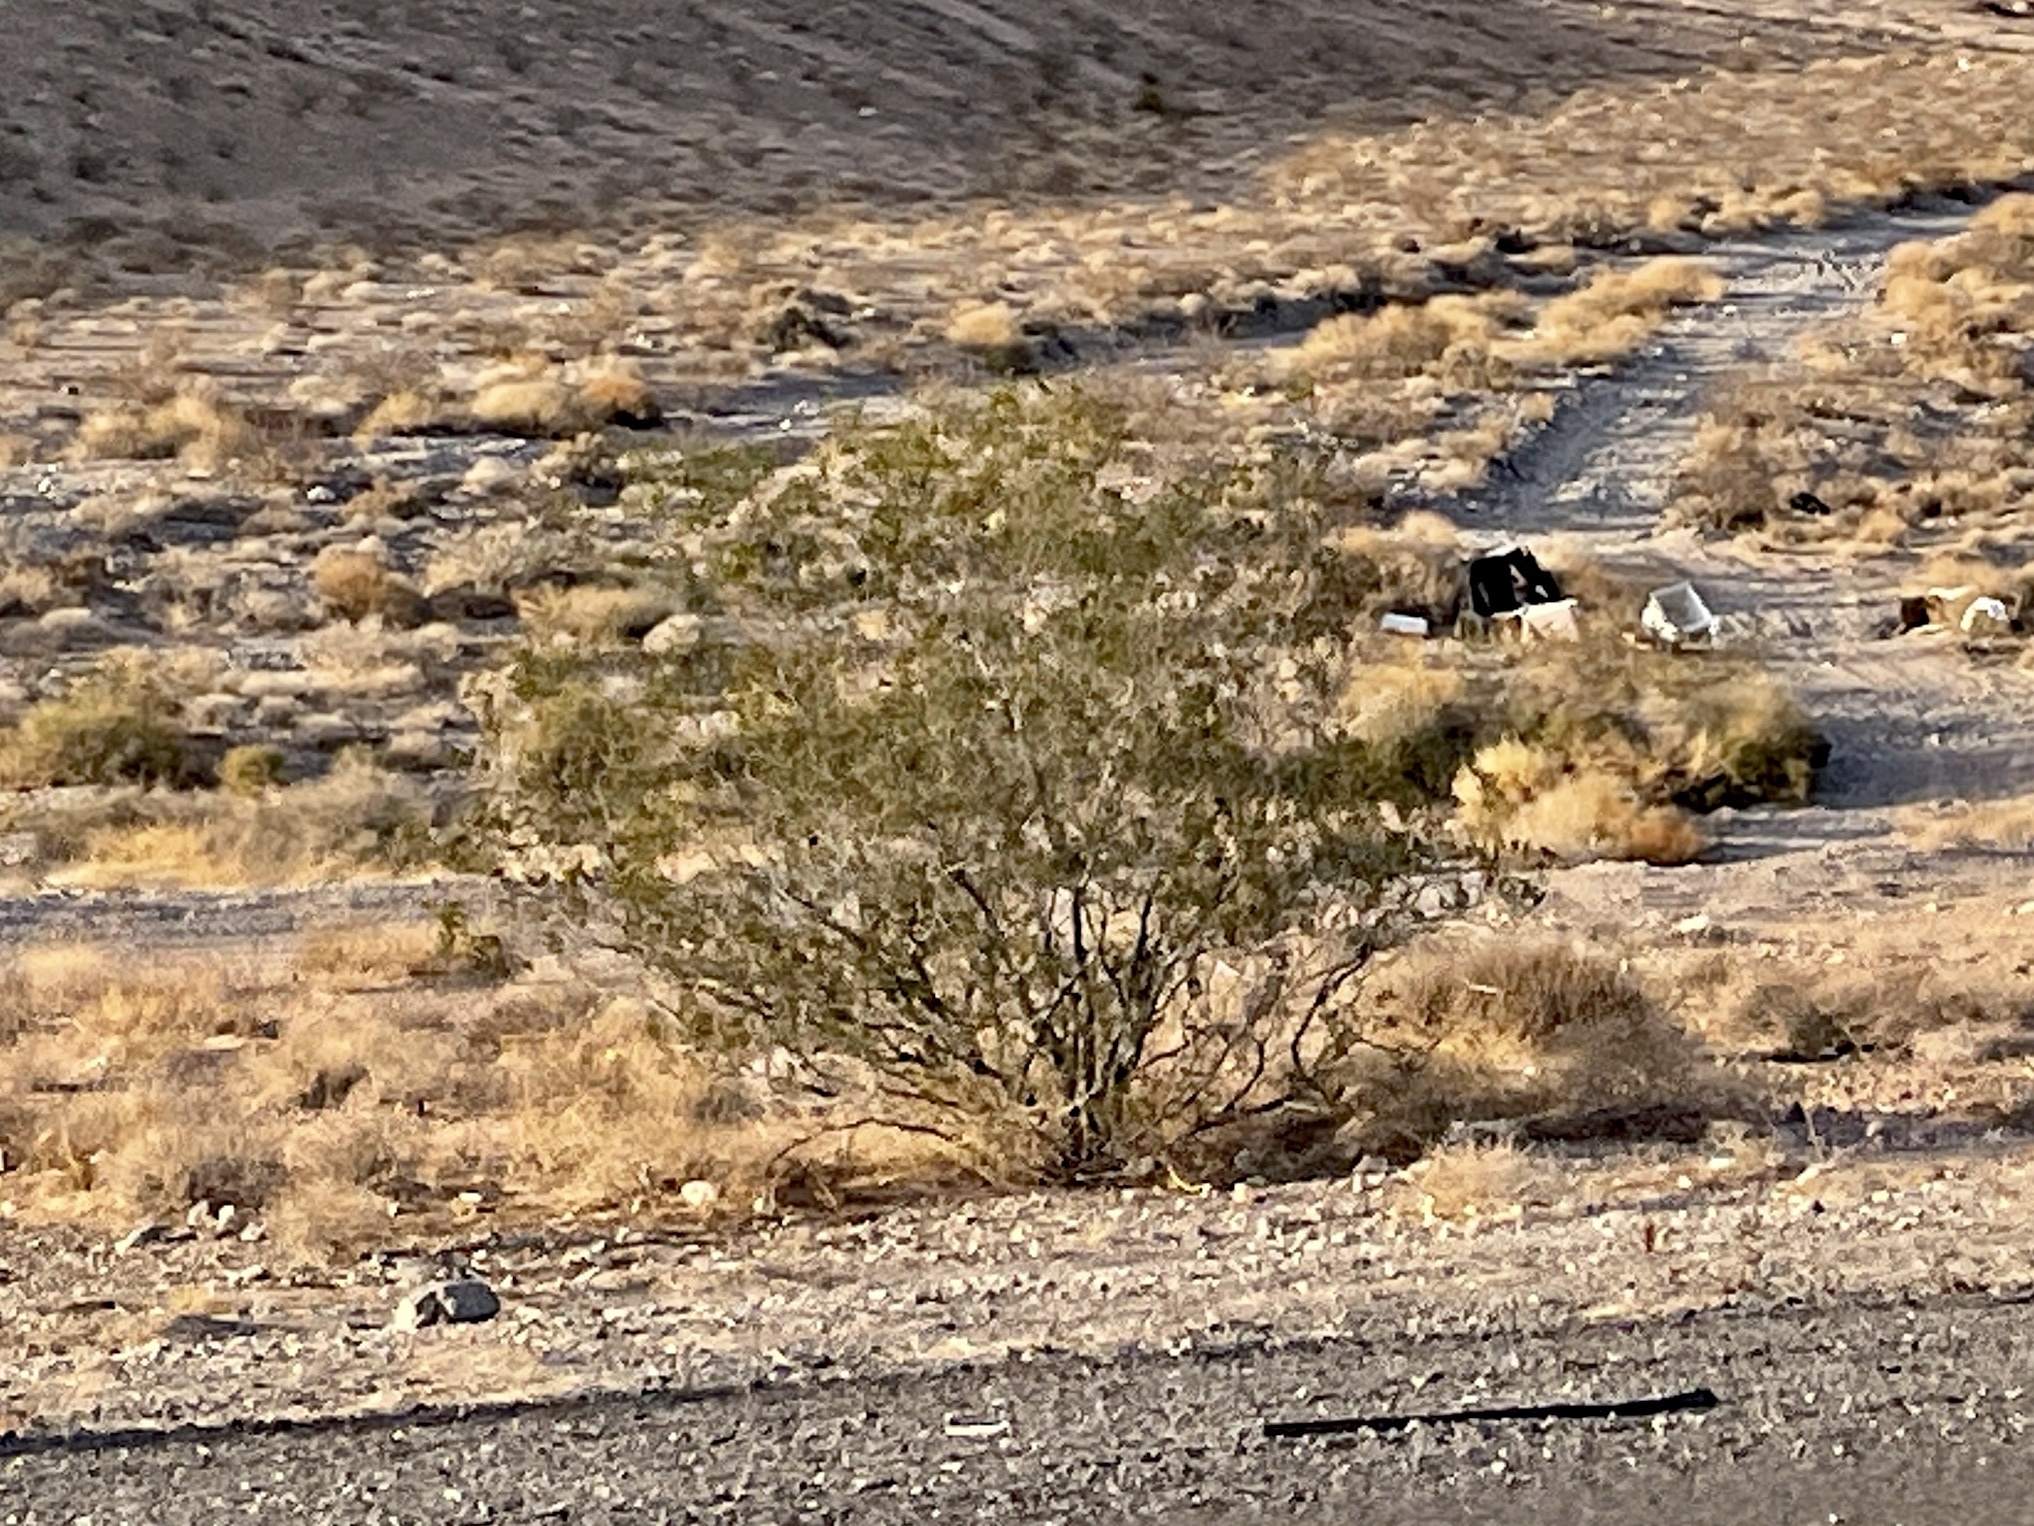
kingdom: Plantae
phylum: Tracheophyta
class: Magnoliopsida
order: Zygophyllales
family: Zygophyllaceae
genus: Larrea
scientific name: Larrea tridentata
